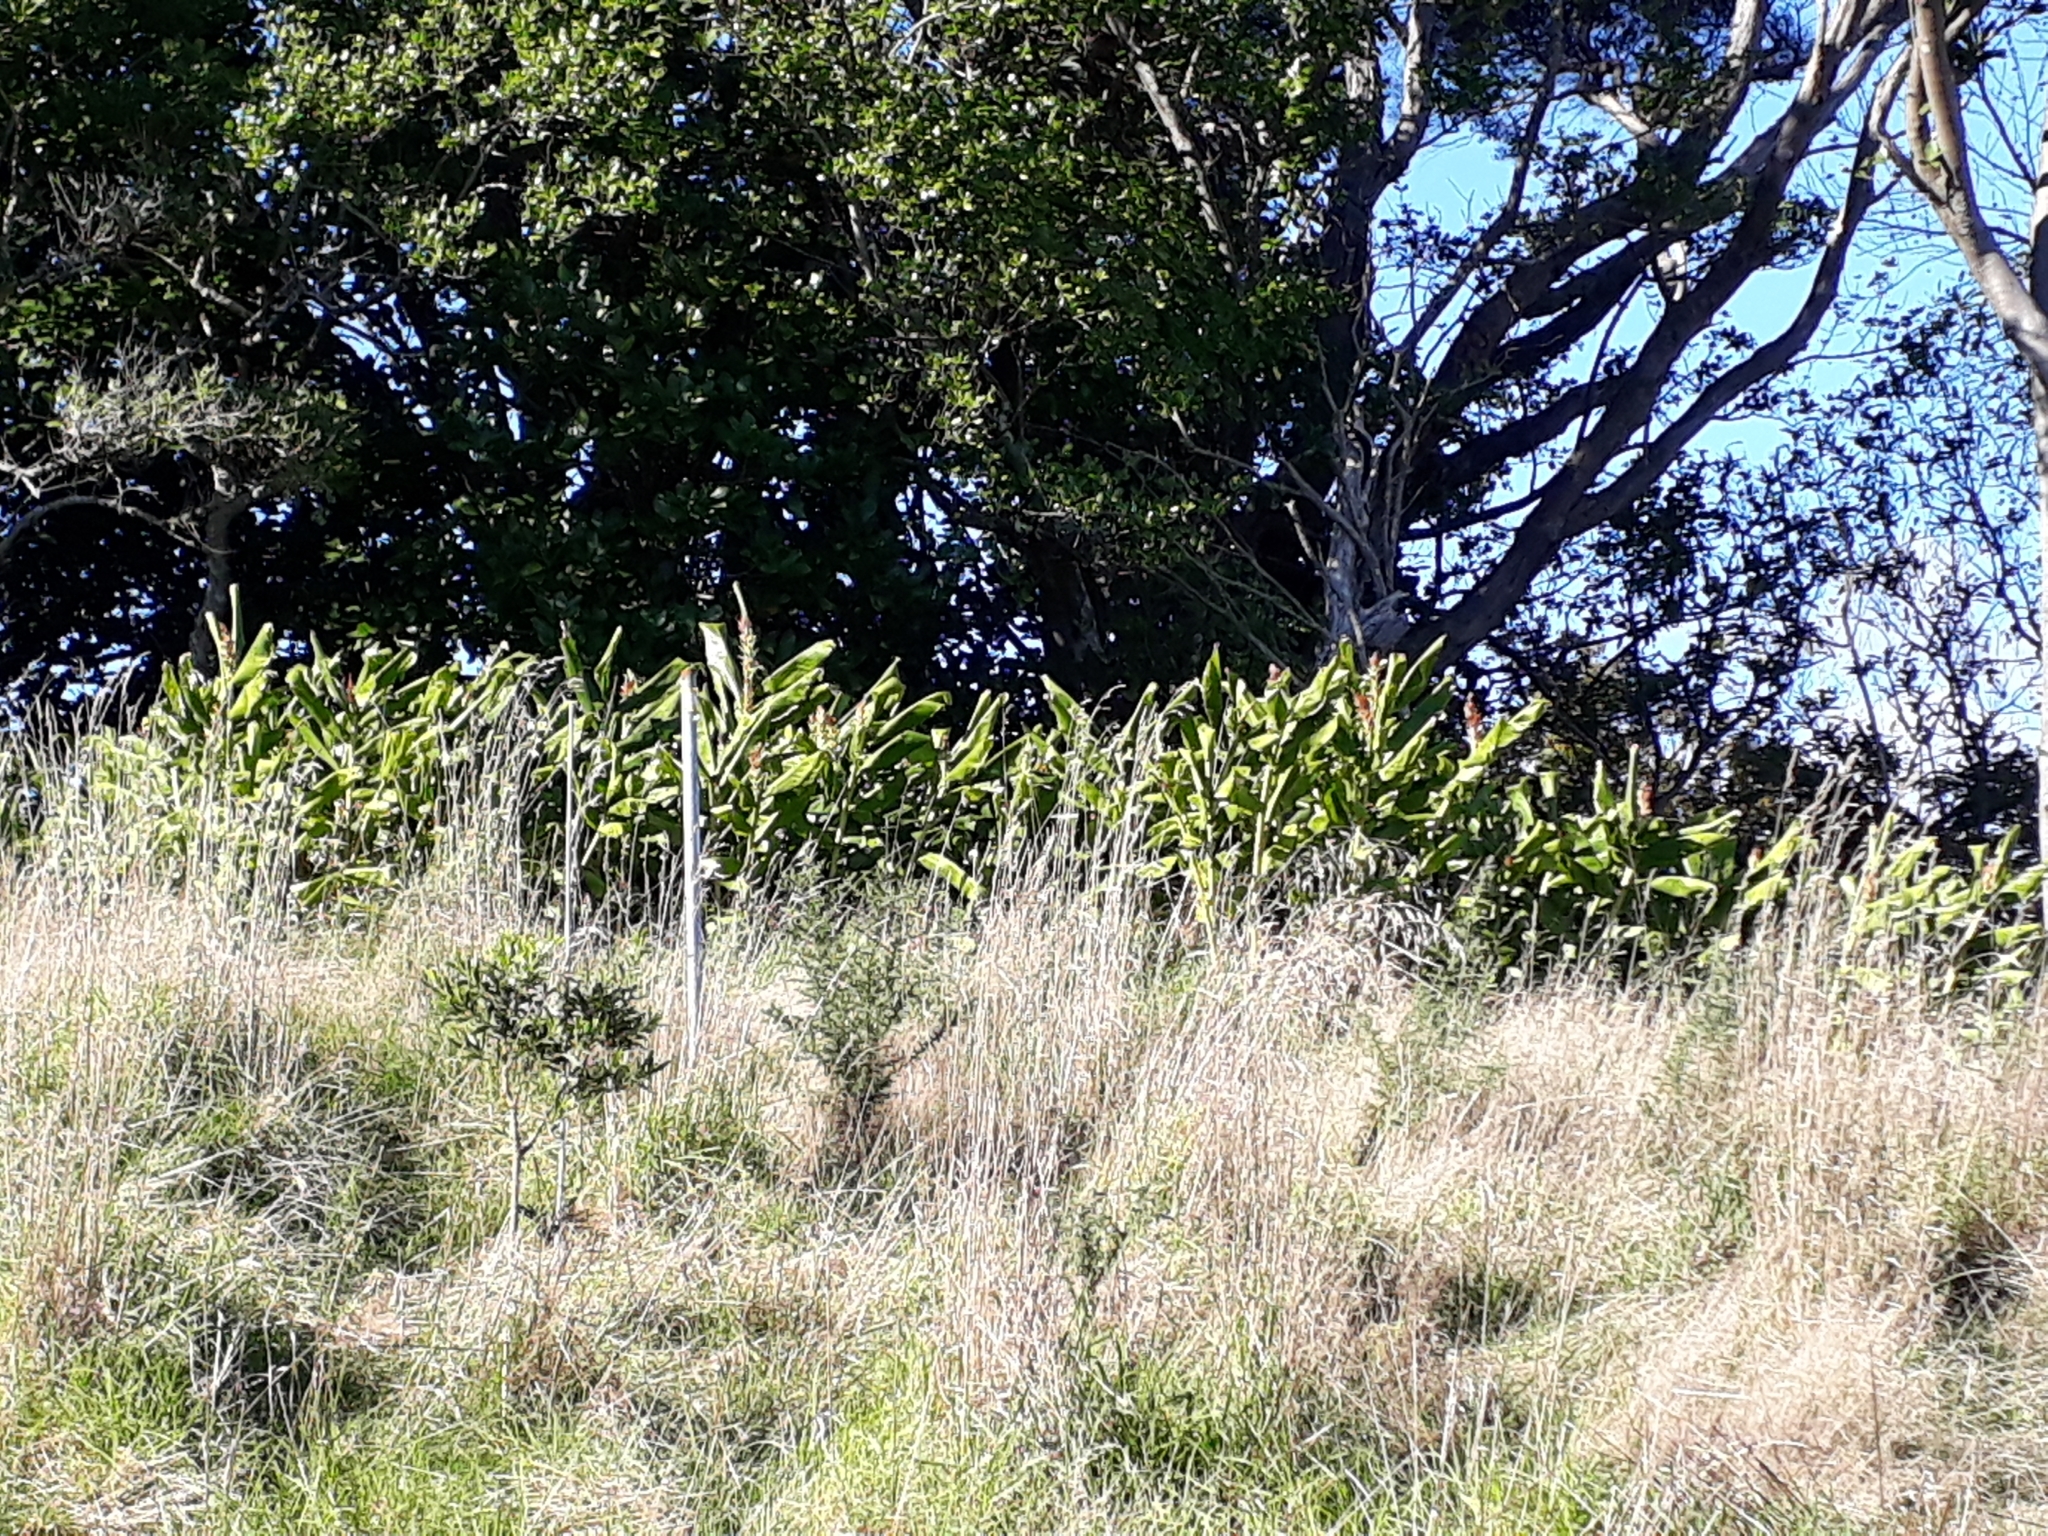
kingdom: Plantae
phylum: Tracheophyta
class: Liliopsida
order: Zingiberales
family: Zingiberaceae
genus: Hedychium
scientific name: Hedychium gardnerianum
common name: Himalayan ginger
